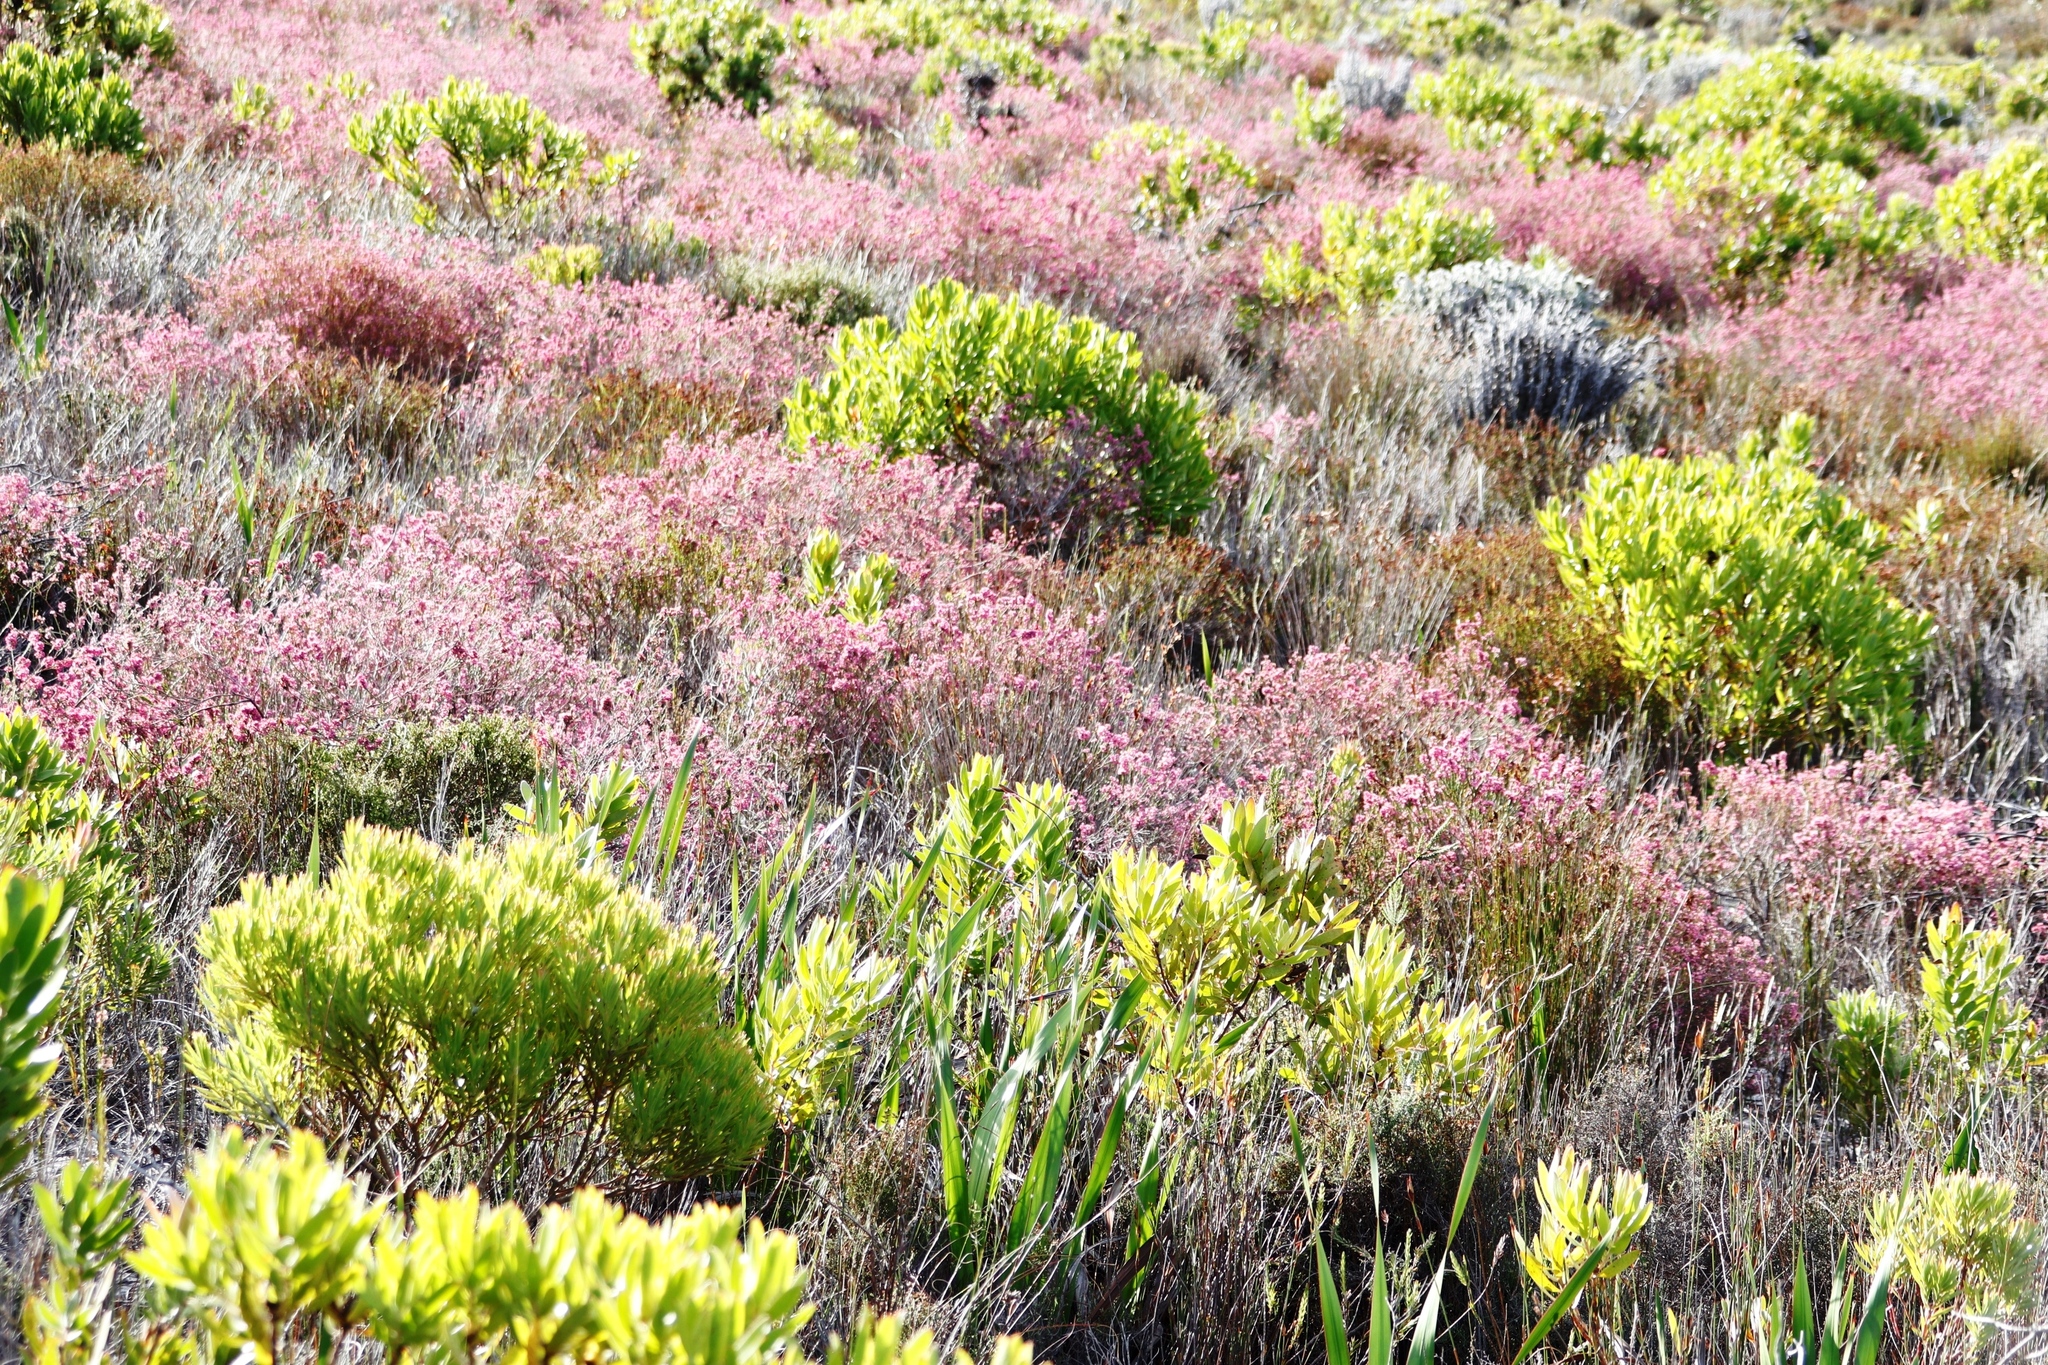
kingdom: Plantae
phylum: Tracheophyta
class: Magnoliopsida
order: Proteales
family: Proteaceae
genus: Leucadendron
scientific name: Leucadendron laureolum
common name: Golden sunshinebush
